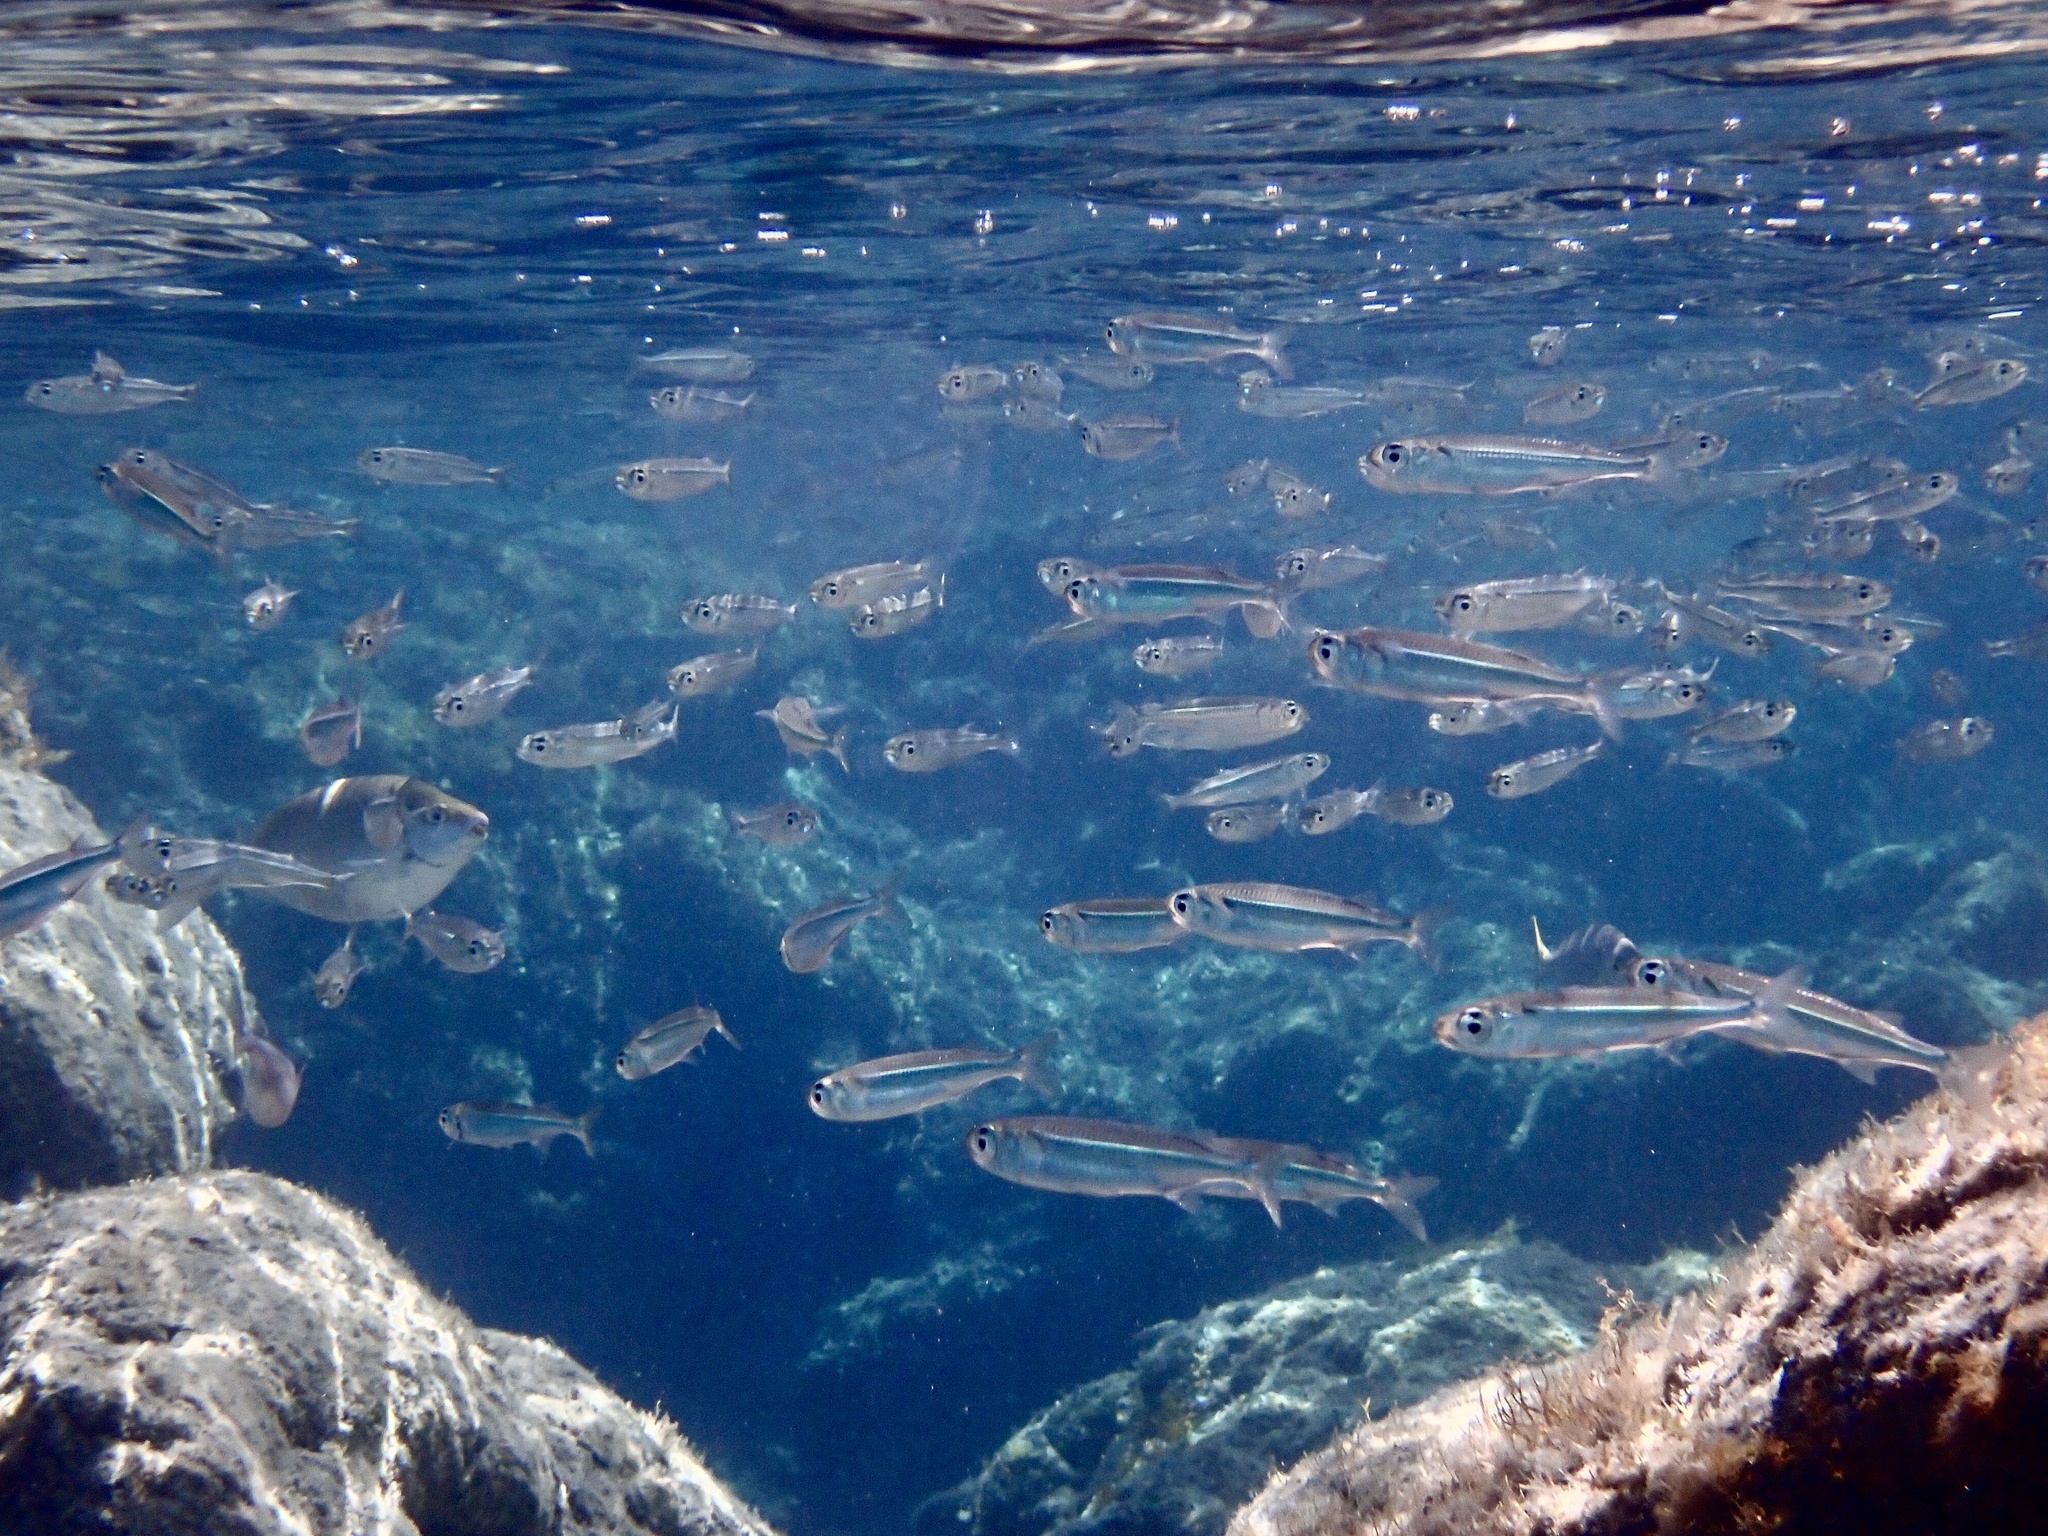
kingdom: Animalia
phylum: Chordata
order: Atheriniformes
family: Atherinidae
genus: Atherinomorus
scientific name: Atherinomorus forskalii
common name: Red sea hardyhead silverside
